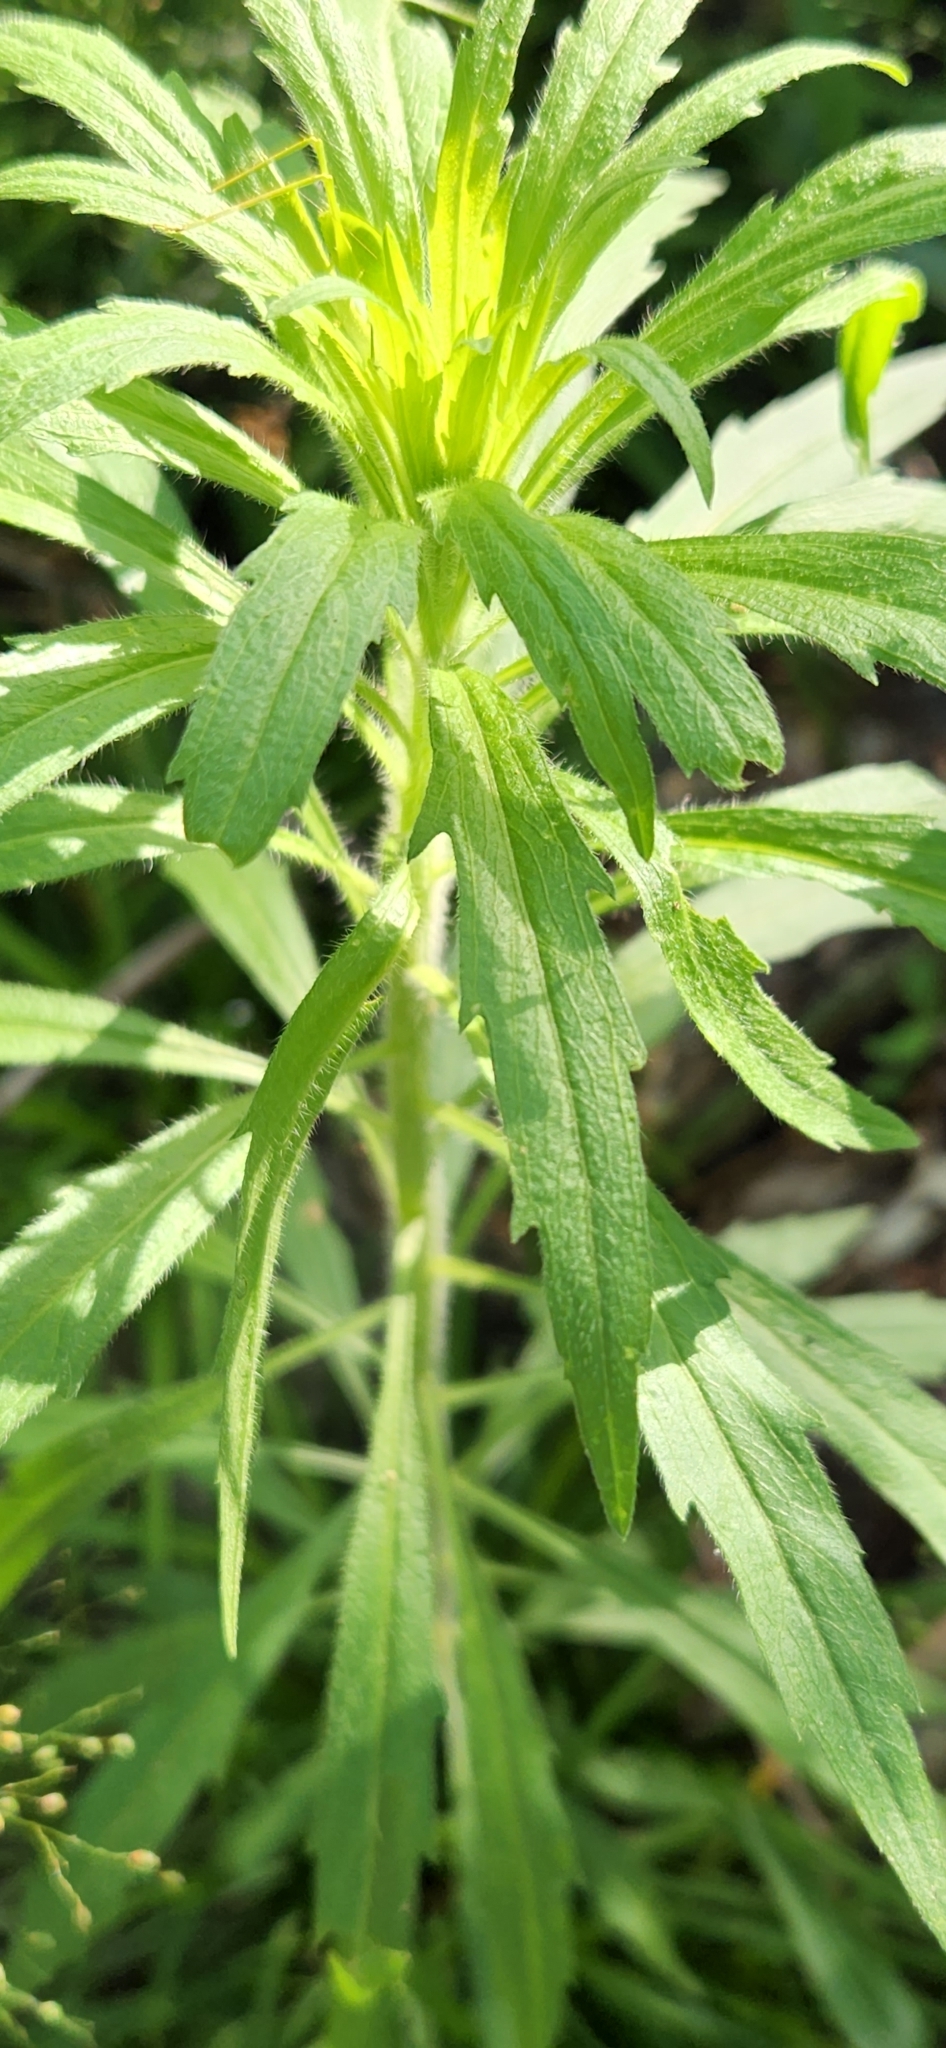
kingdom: Plantae
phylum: Tracheophyta
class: Magnoliopsida
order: Asterales
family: Asteraceae
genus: Erigeron
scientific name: Erigeron canadensis
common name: Canadian fleabane
